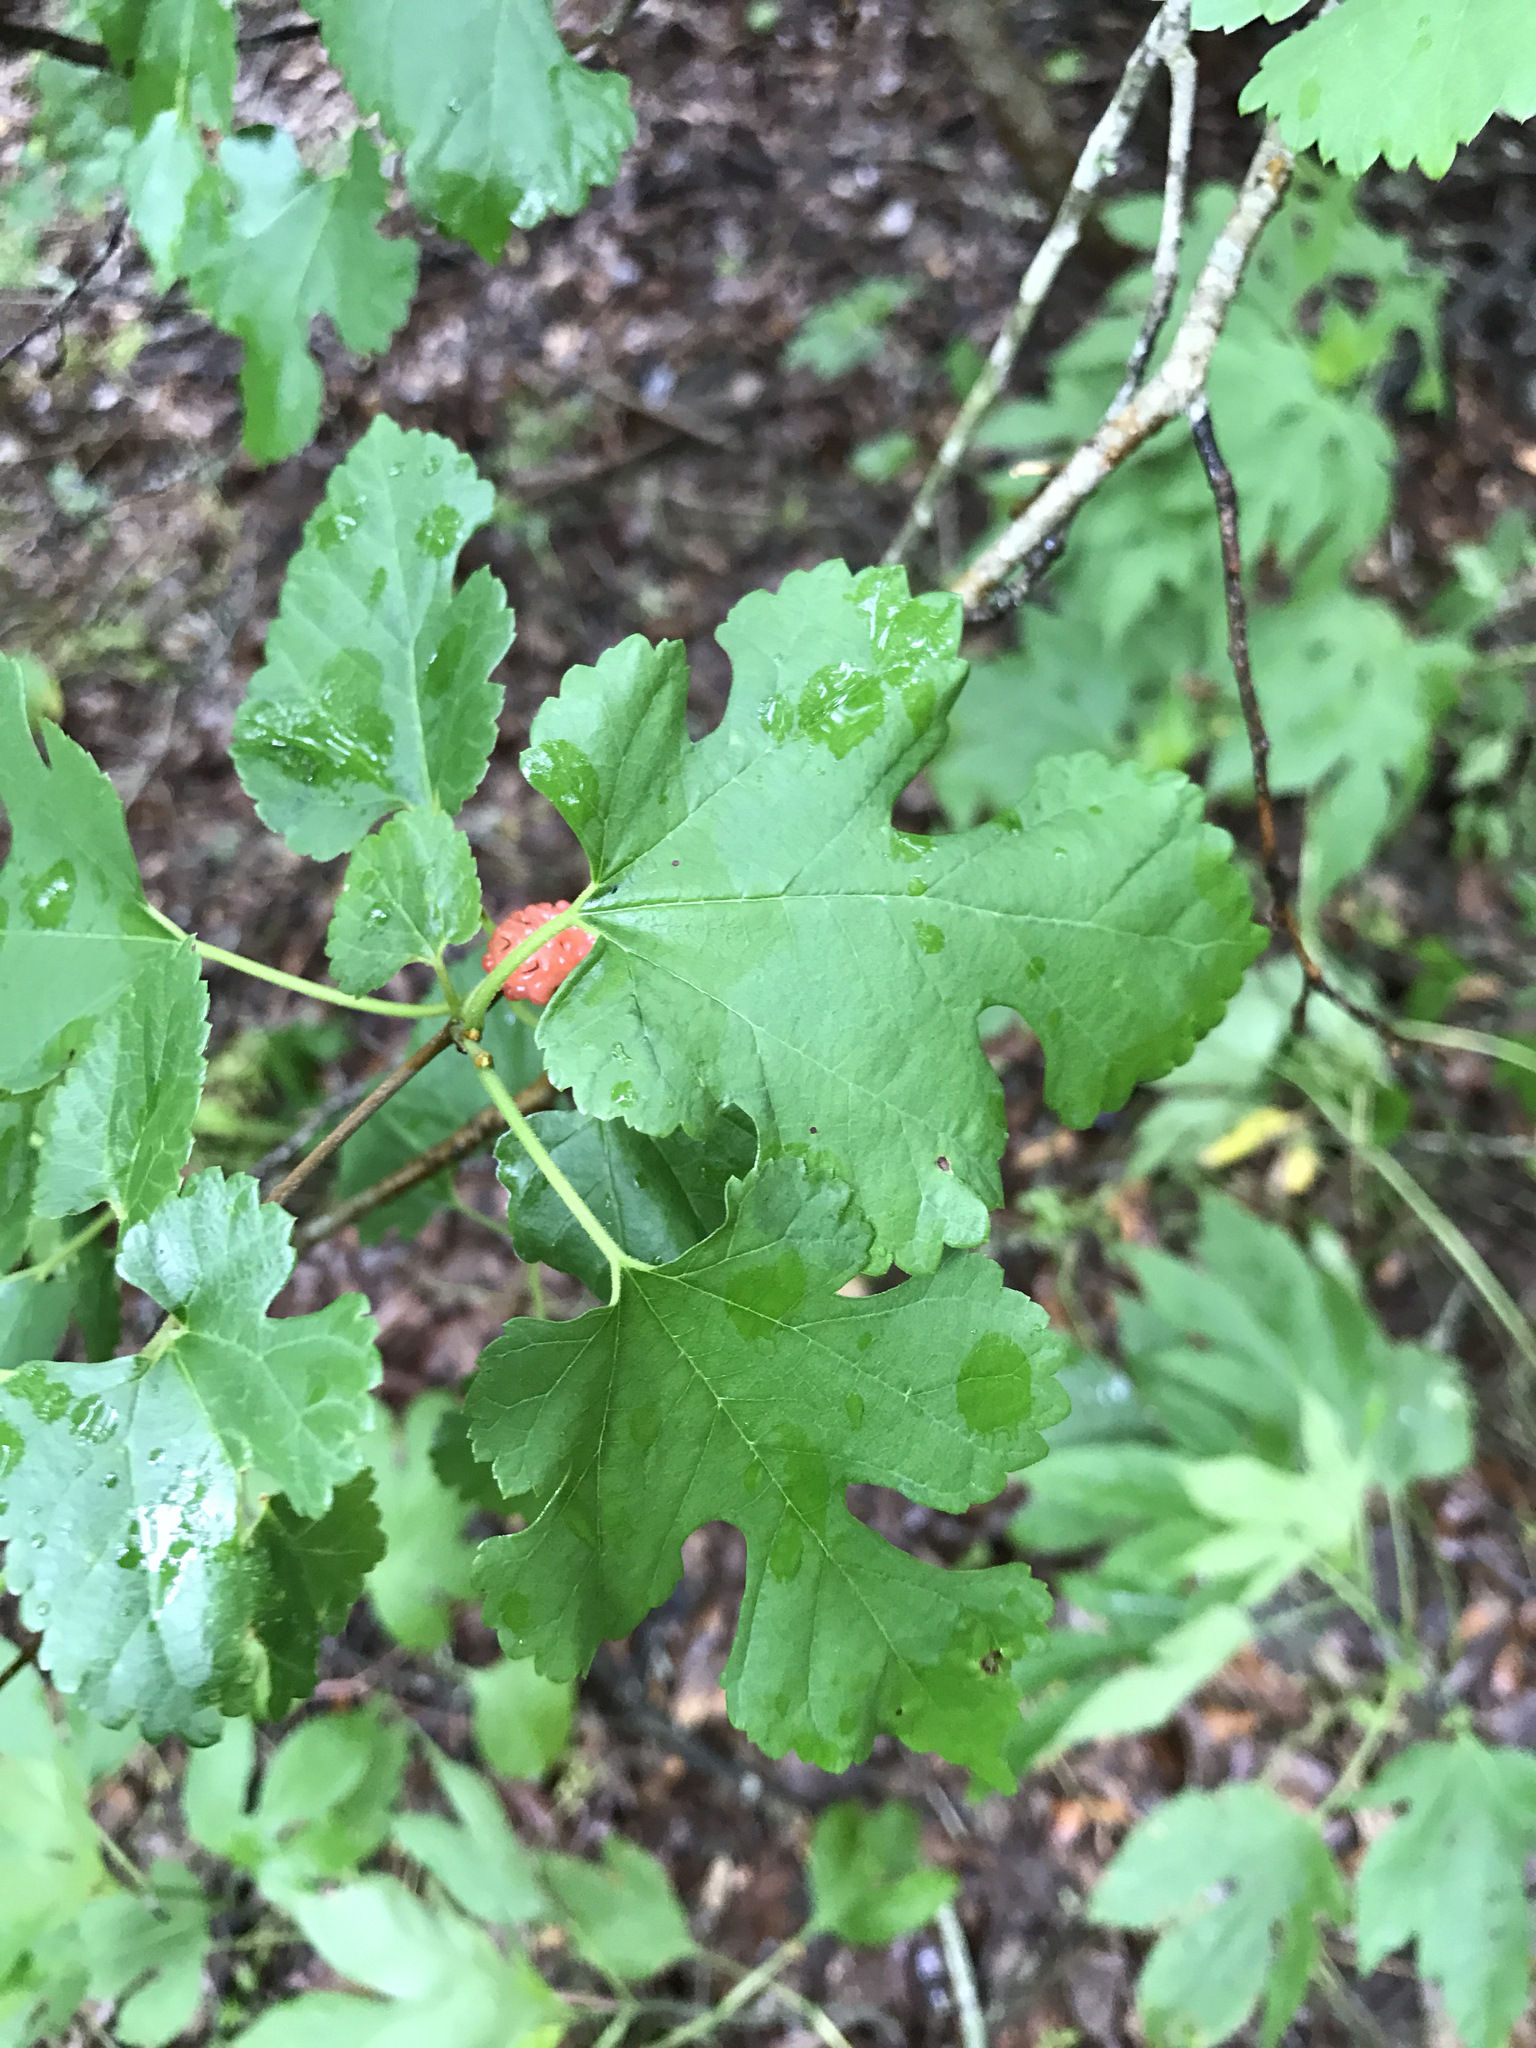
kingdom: Plantae
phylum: Tracheophyta
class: Magnoliopsida
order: Rosales
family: Moraceae
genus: Morus
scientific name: Morus alba
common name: White mulberry
